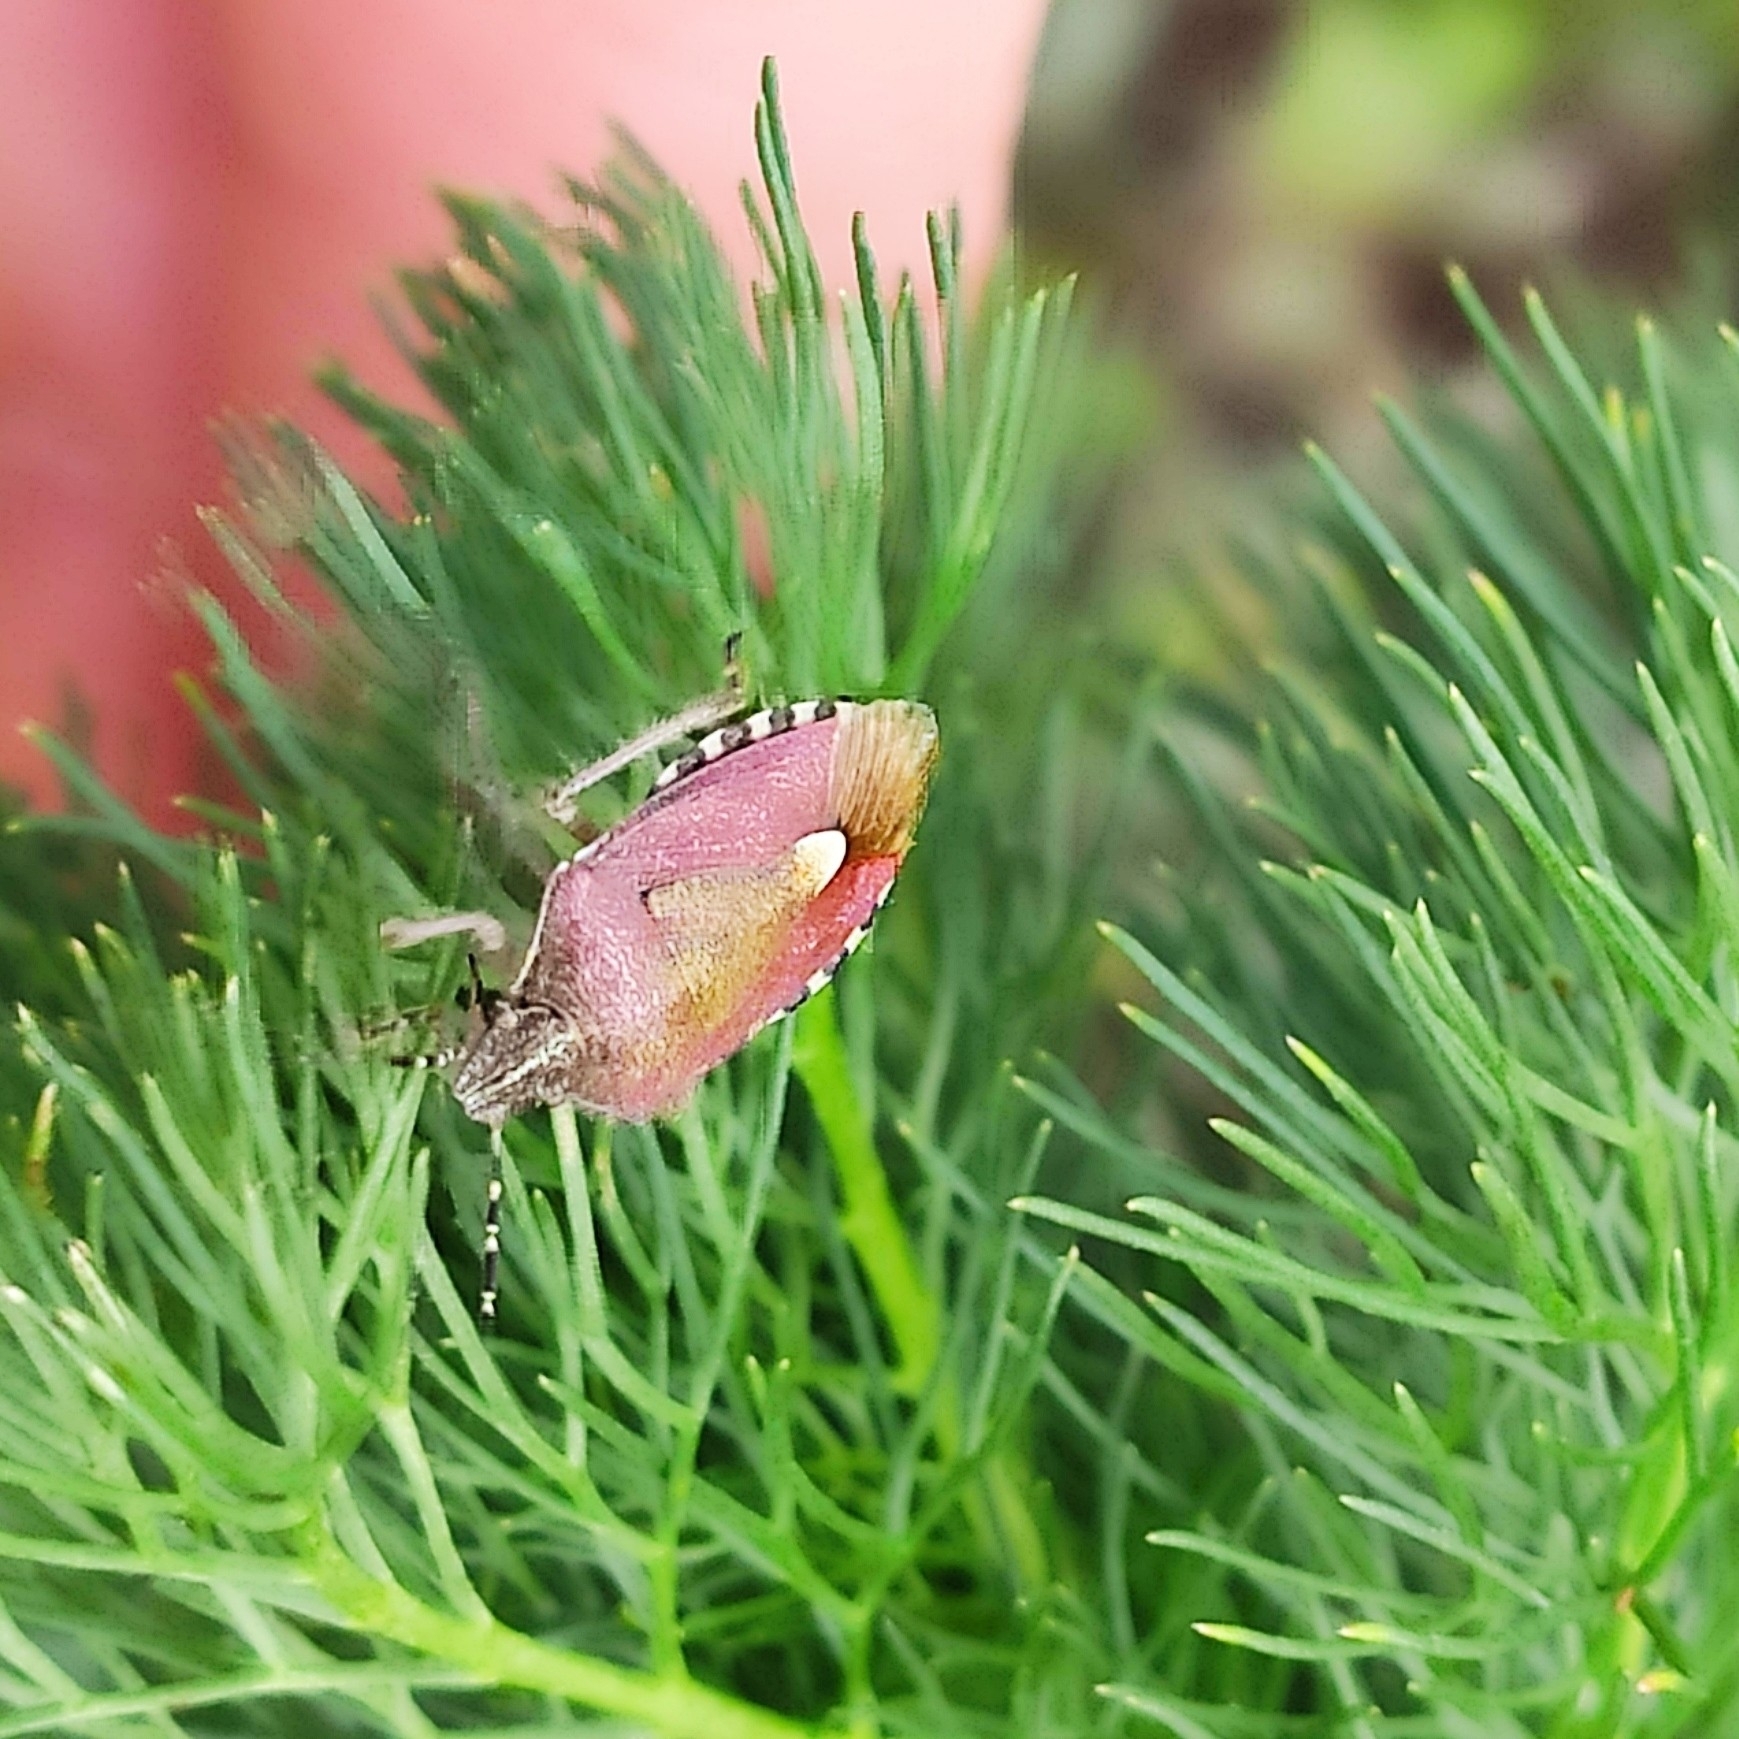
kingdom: Animalia
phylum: Arthropoda
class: Insecta
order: Hemiptera
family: Pentatomidae
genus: Dolycoris
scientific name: Dolycoris baccarum
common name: Sloe bug
